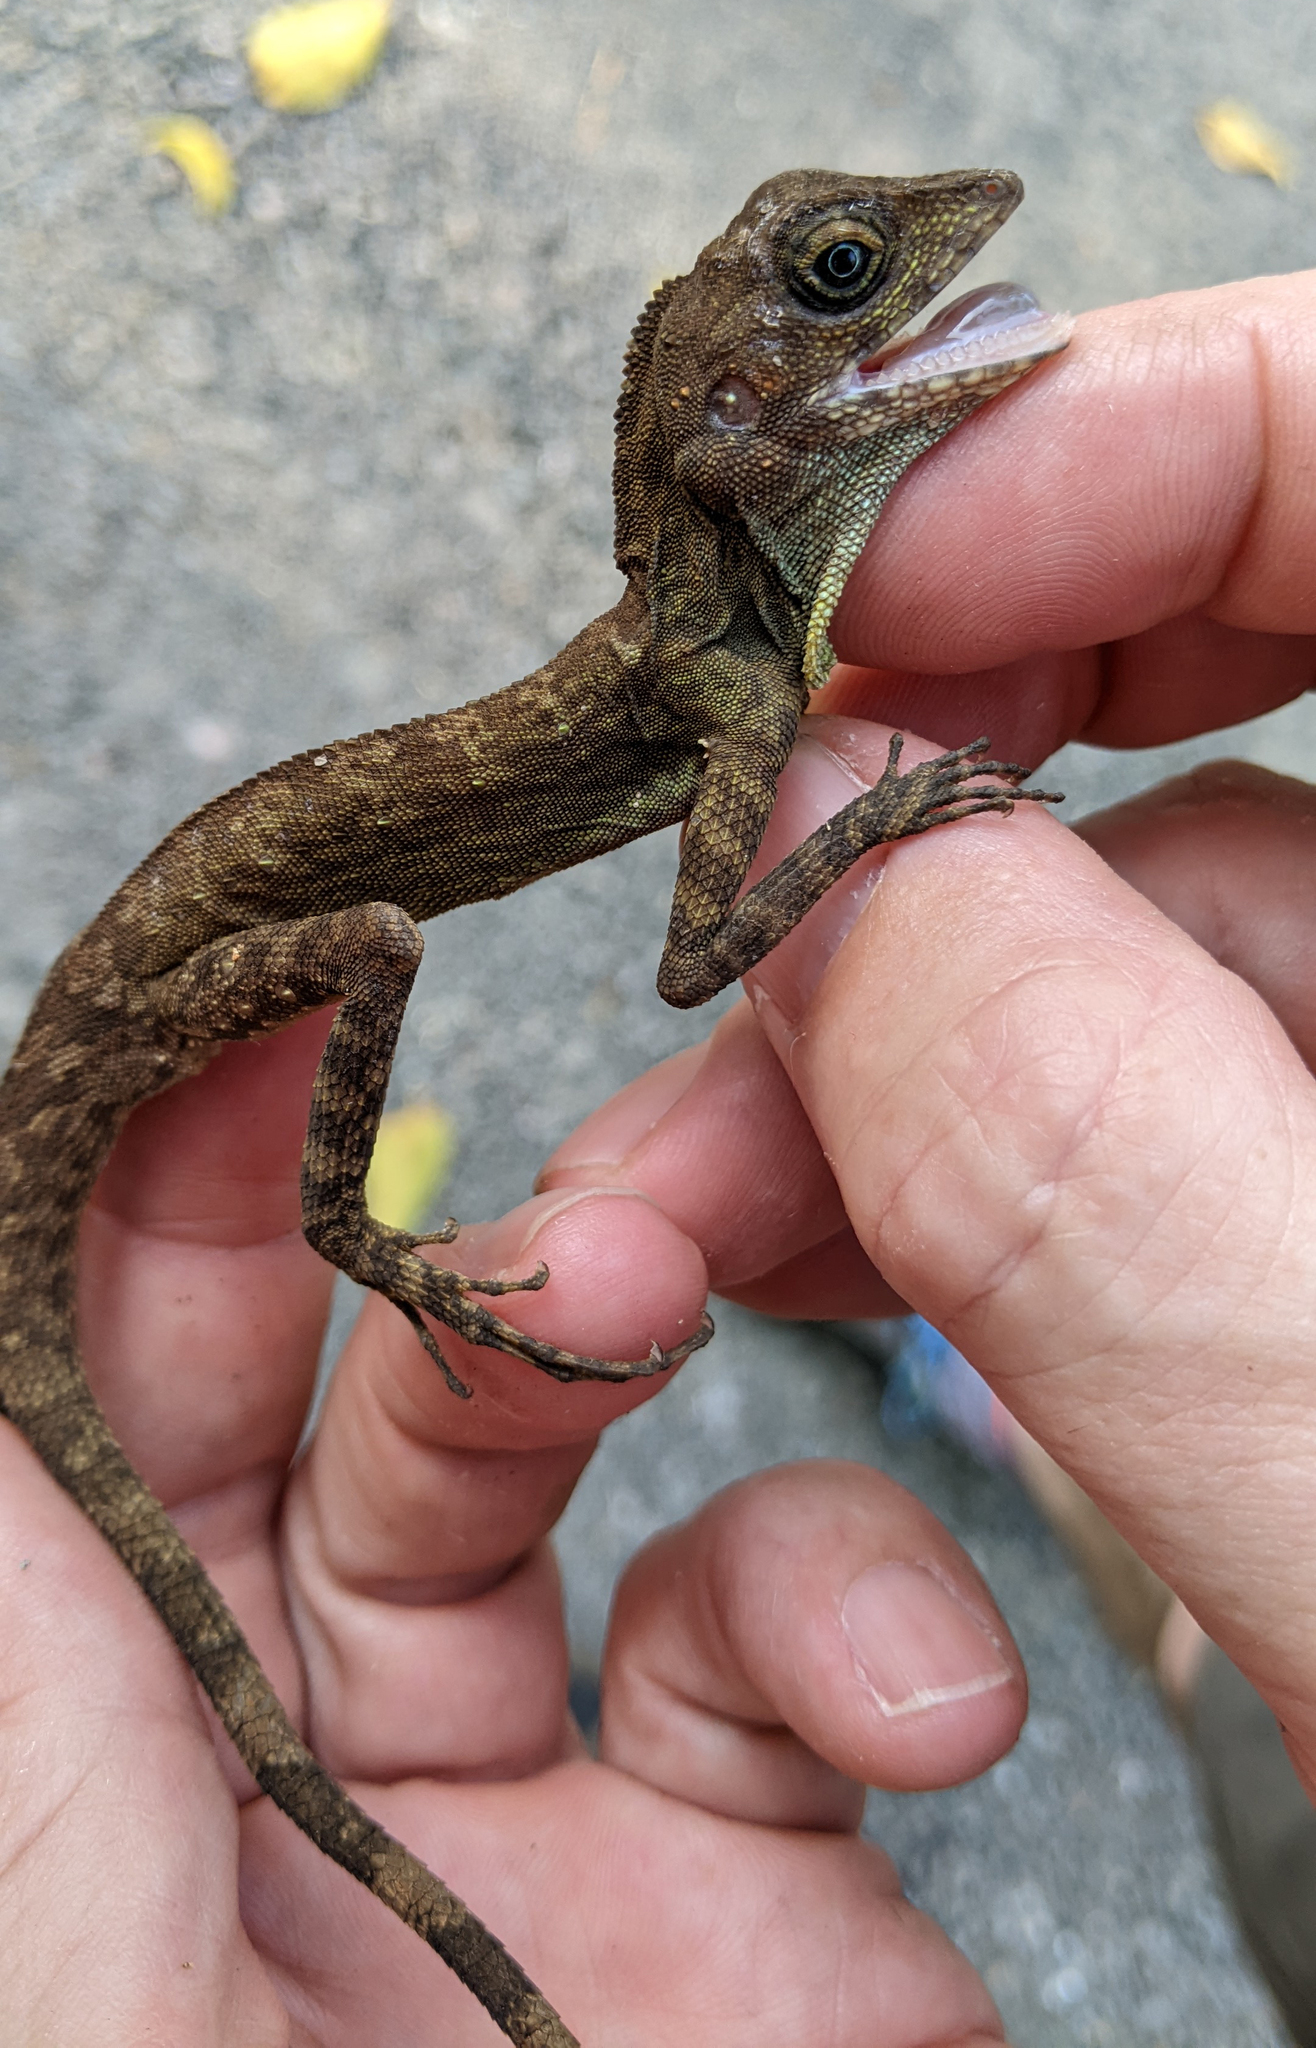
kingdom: Animalia
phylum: Chordata
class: Squamata
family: Agamidae
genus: Coryphophylax
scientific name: Coryphophylax subcristatus
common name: Short-crested bay island forest lizard
